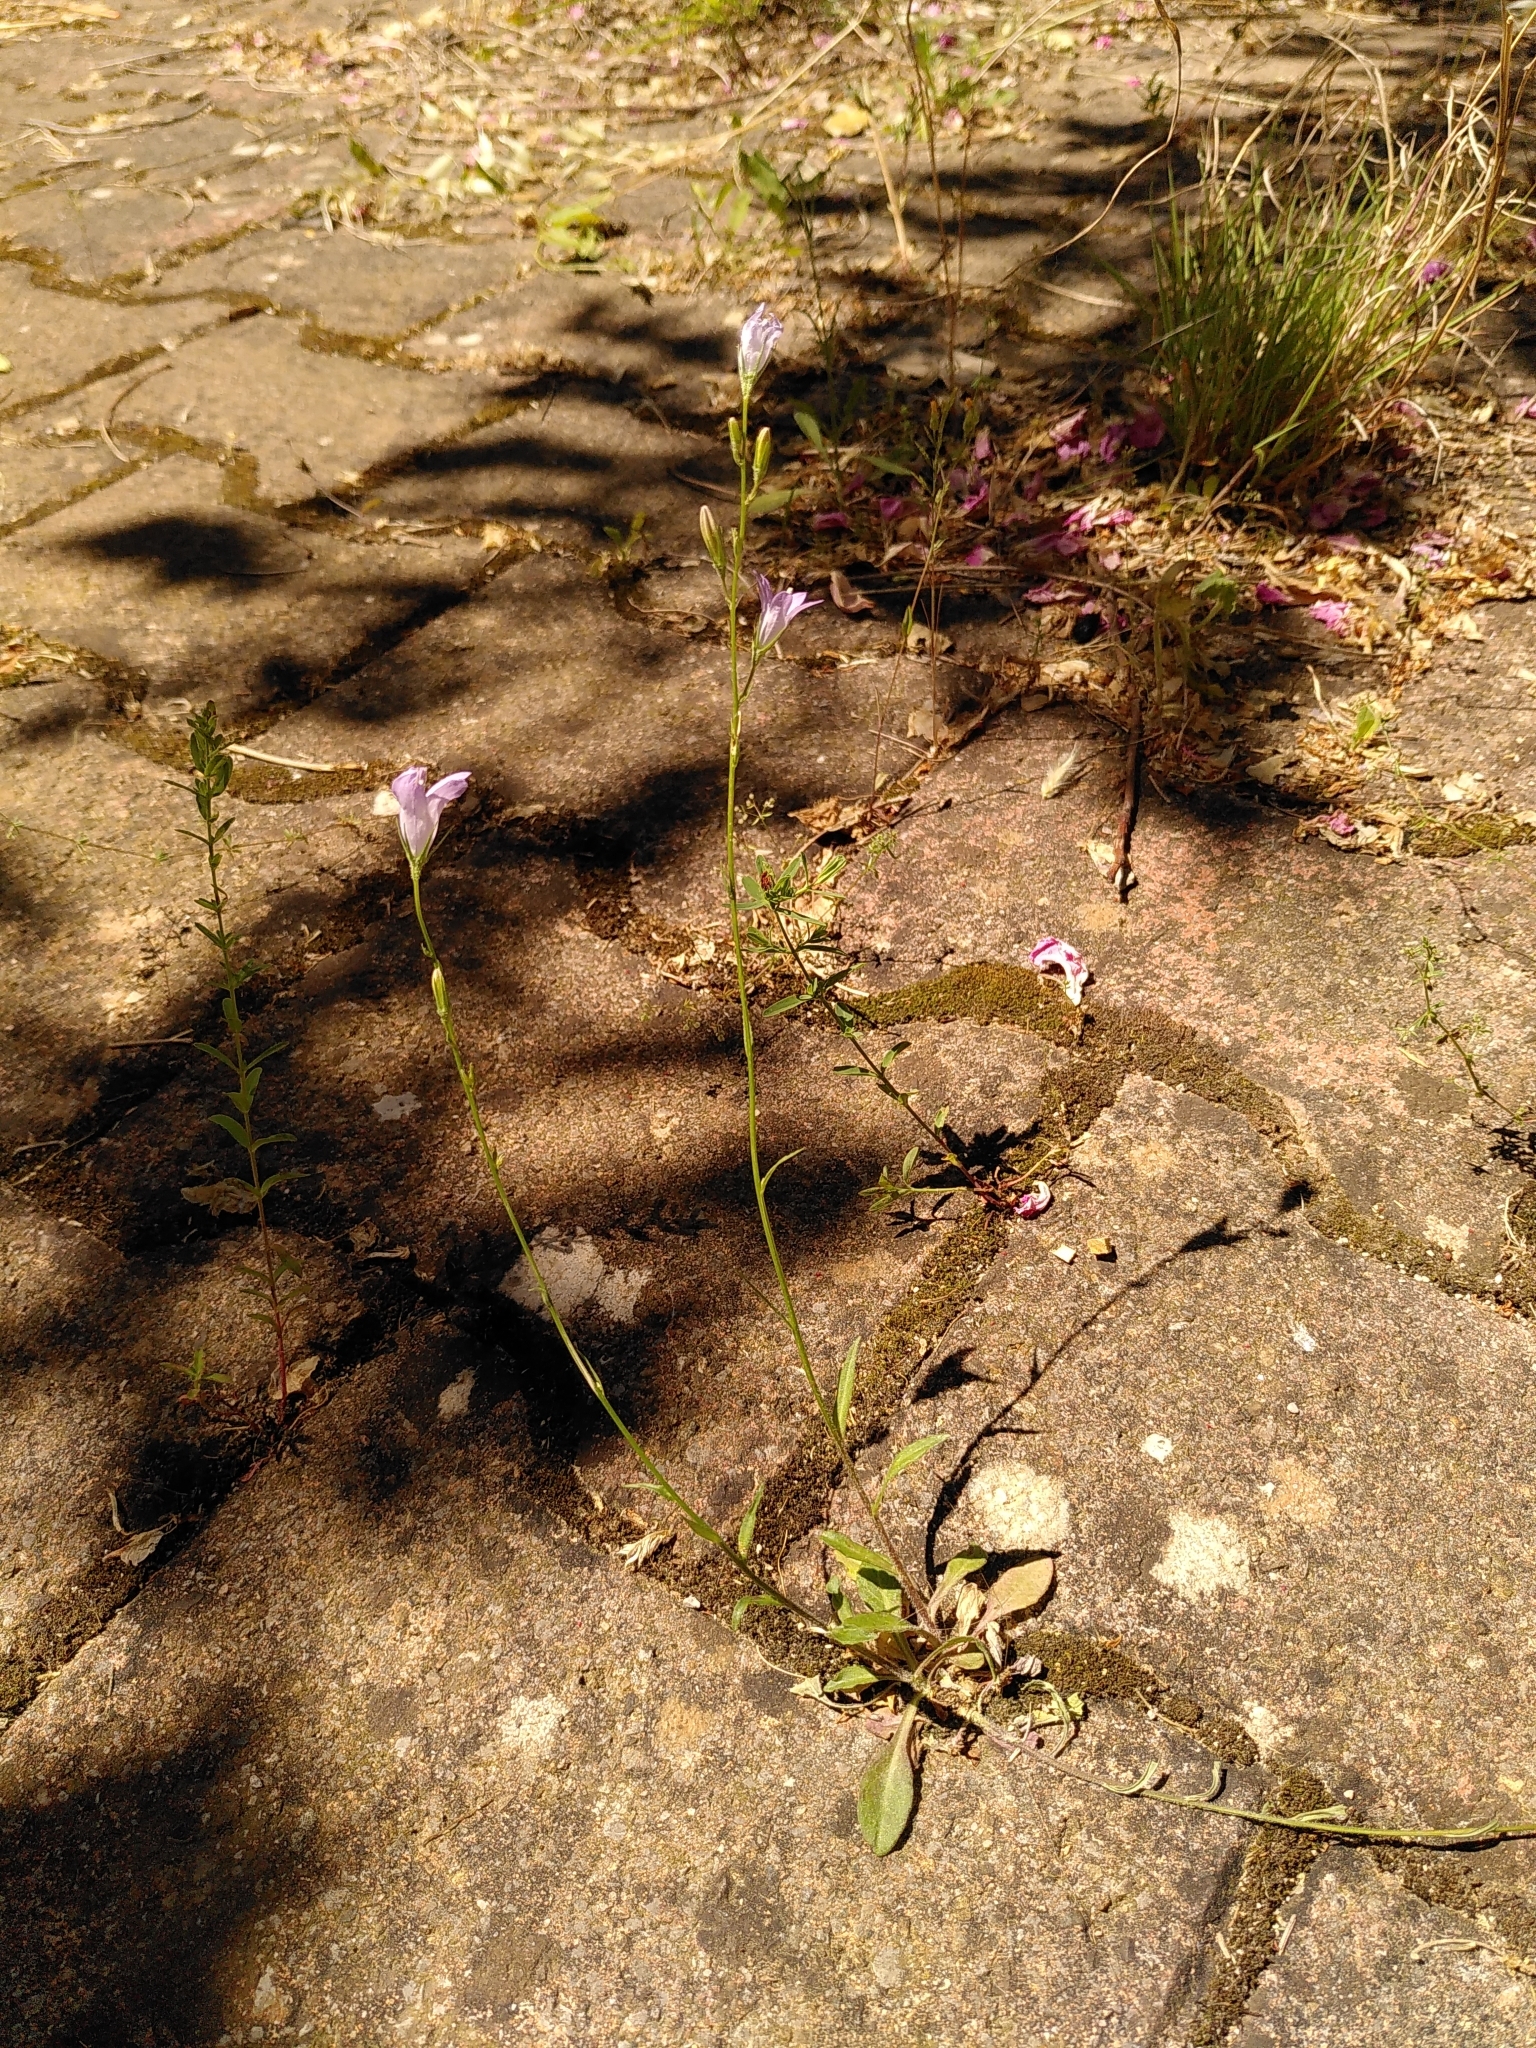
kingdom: Plantae
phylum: Tracheophyta
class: Magnoliopsida
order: Asterales
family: Campanulaceae
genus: Campanula
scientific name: Campanula rapunculus
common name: Rampion bellflower
